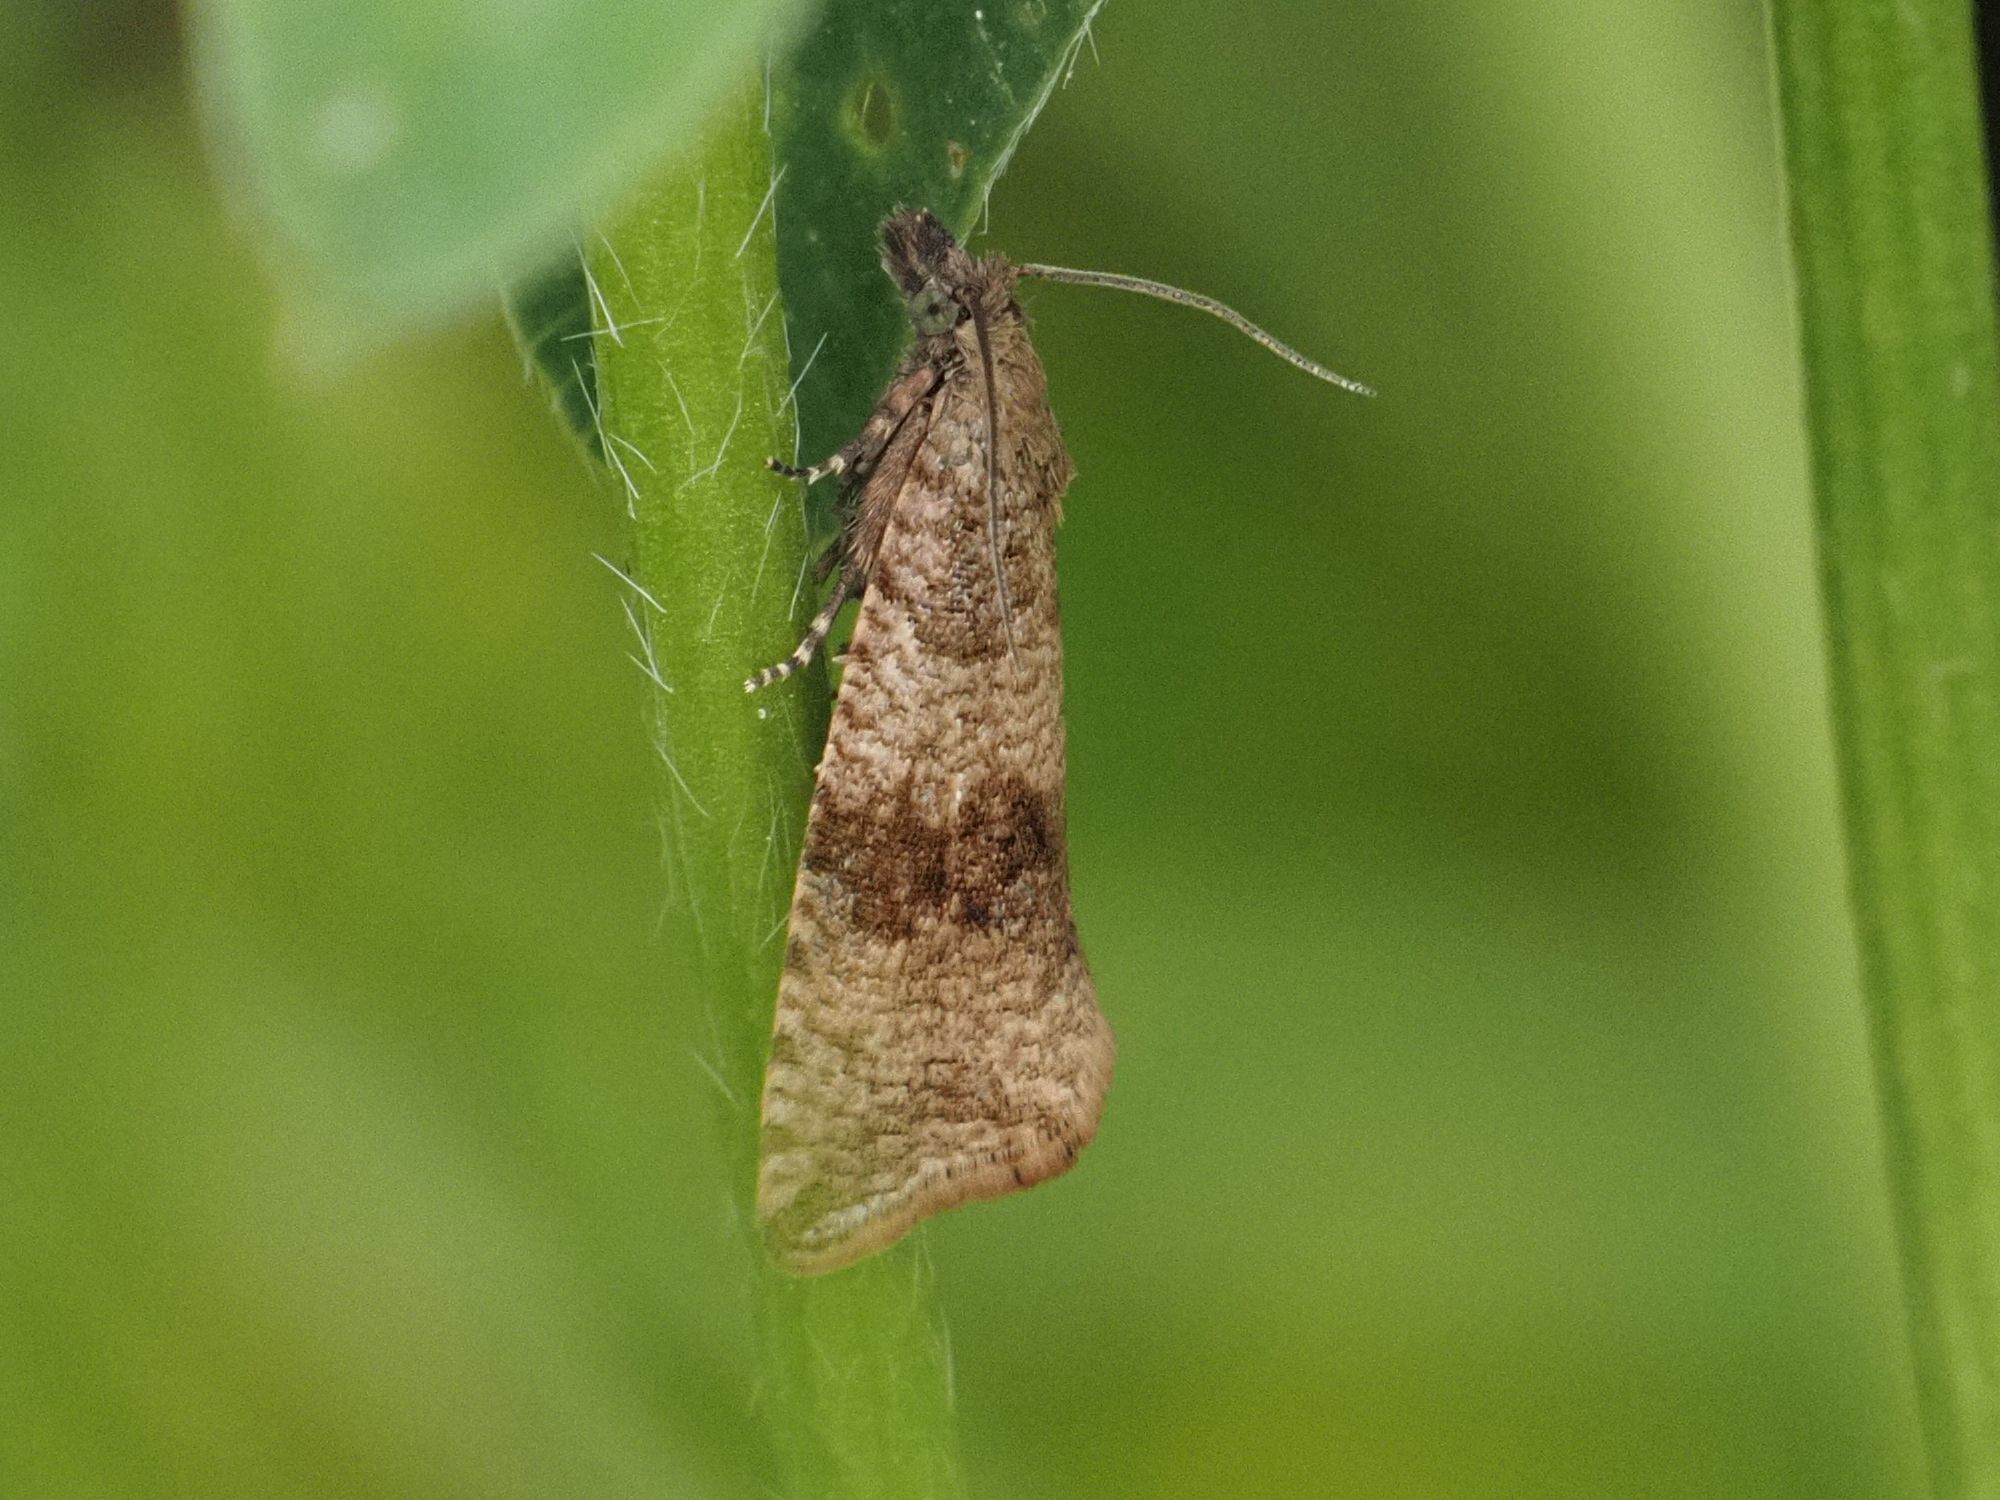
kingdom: Animalia
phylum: Arthropoda
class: Insecta
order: Lepidoptera
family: Tortricidae
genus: Celypha
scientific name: Celypha striana
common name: Barred marble
